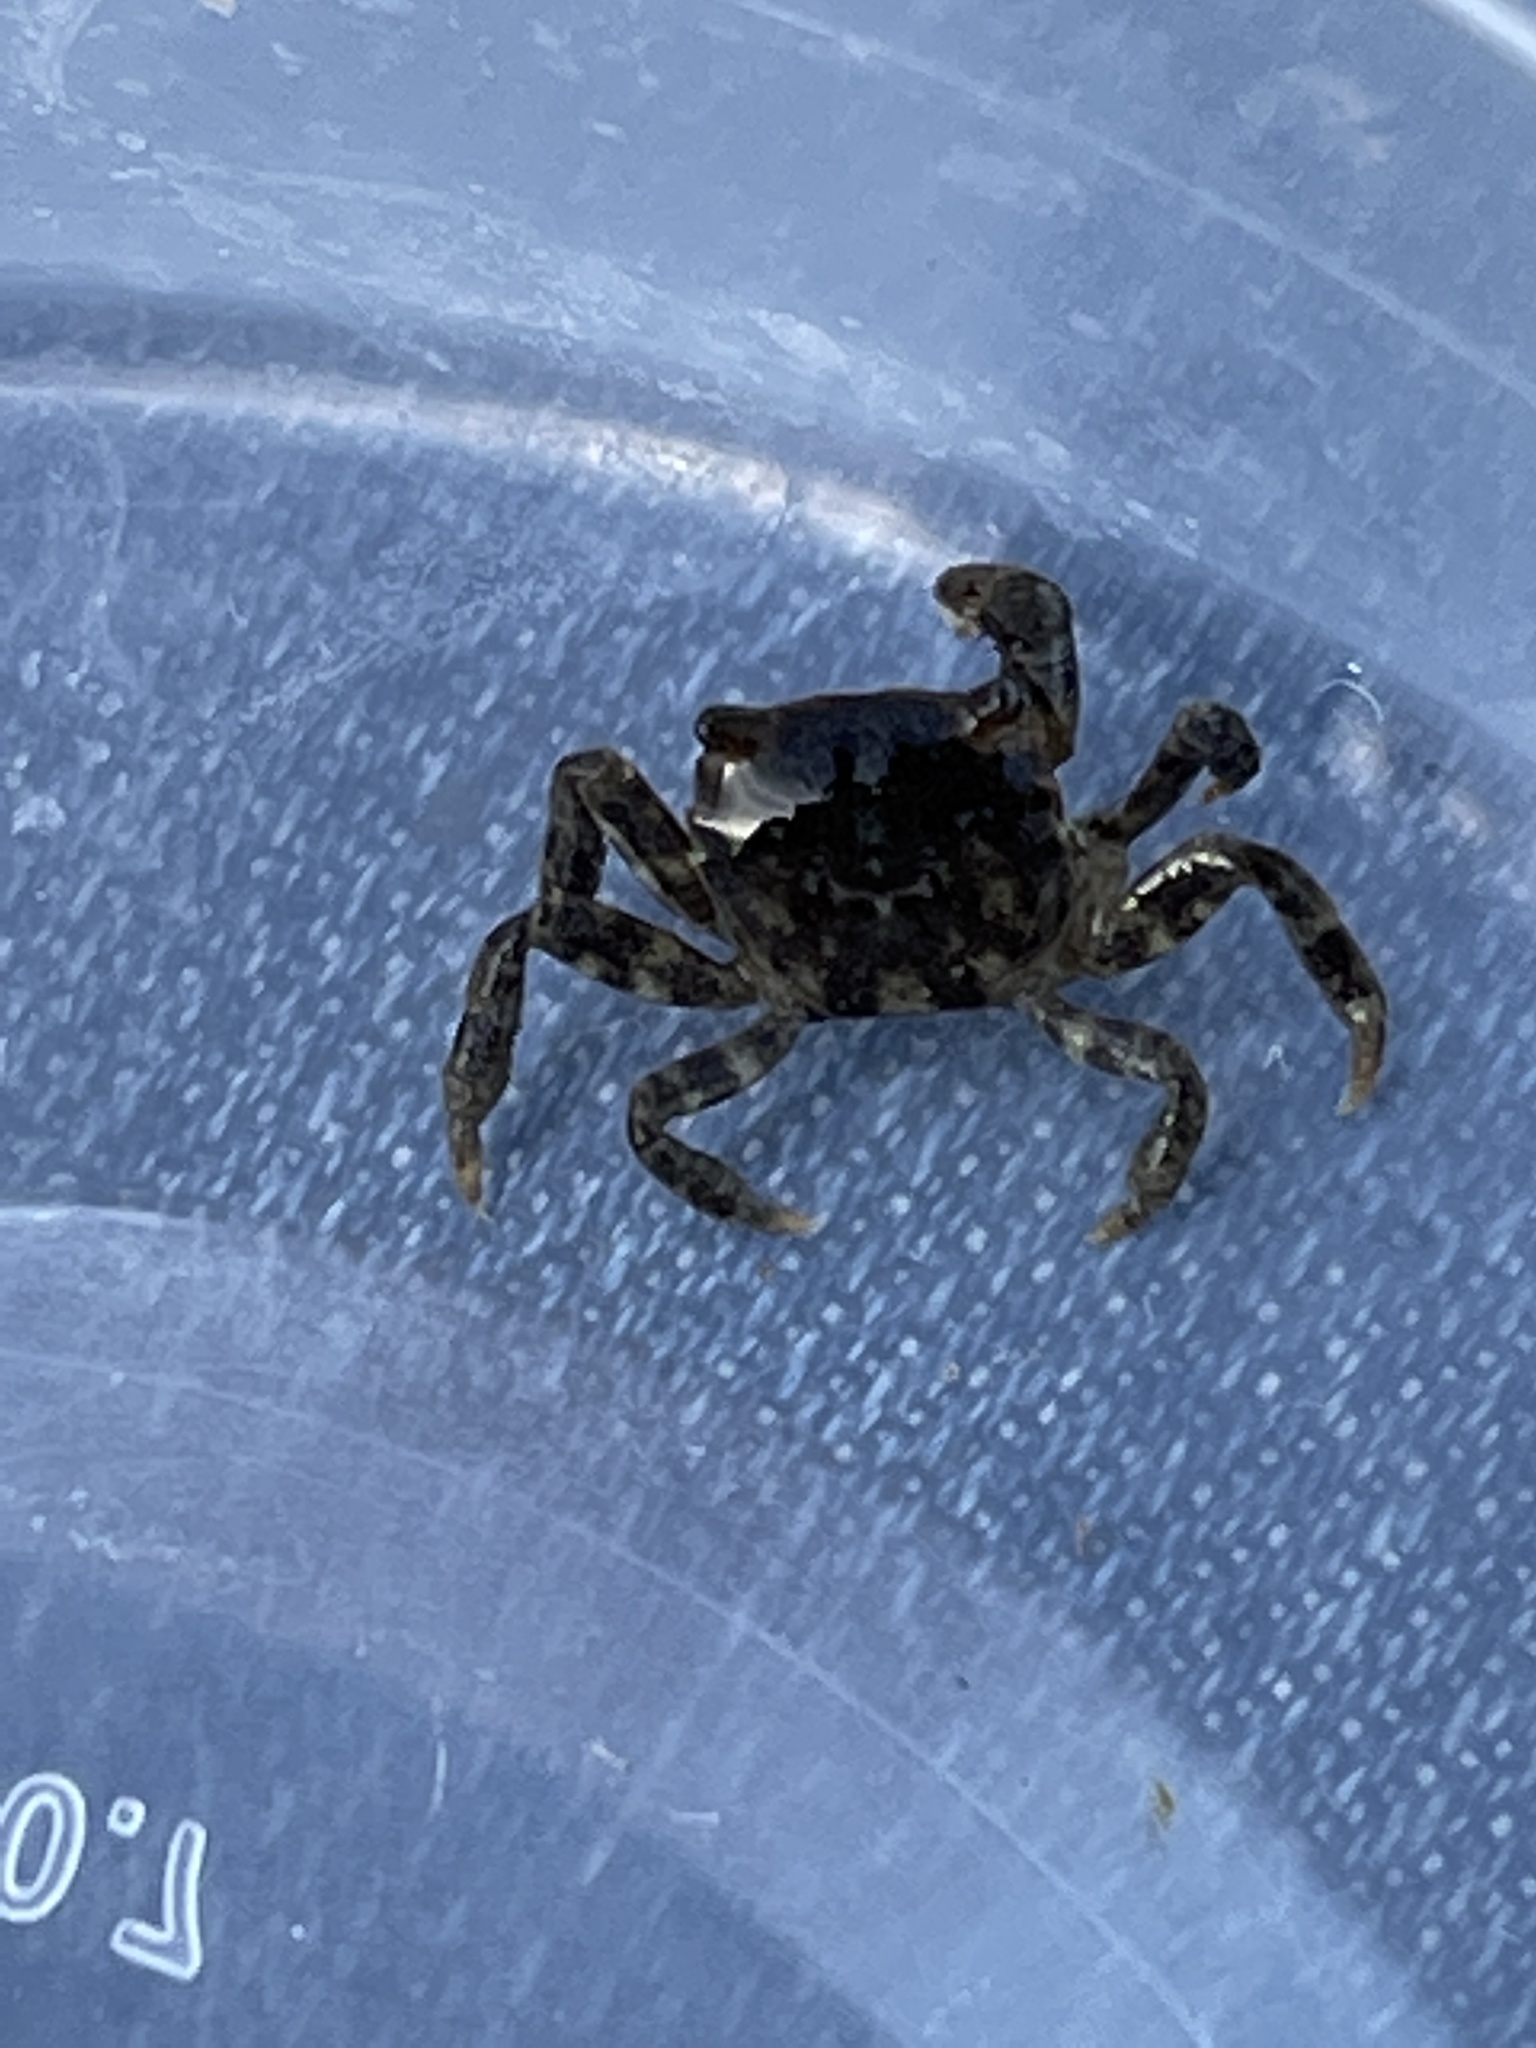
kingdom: Animalia
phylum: Arthropoda
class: Malacostraca
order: Decapoda
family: Varunidae
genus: Hemigrapsus
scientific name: Hemigrapsus sanguineus
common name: Asian shore crab
